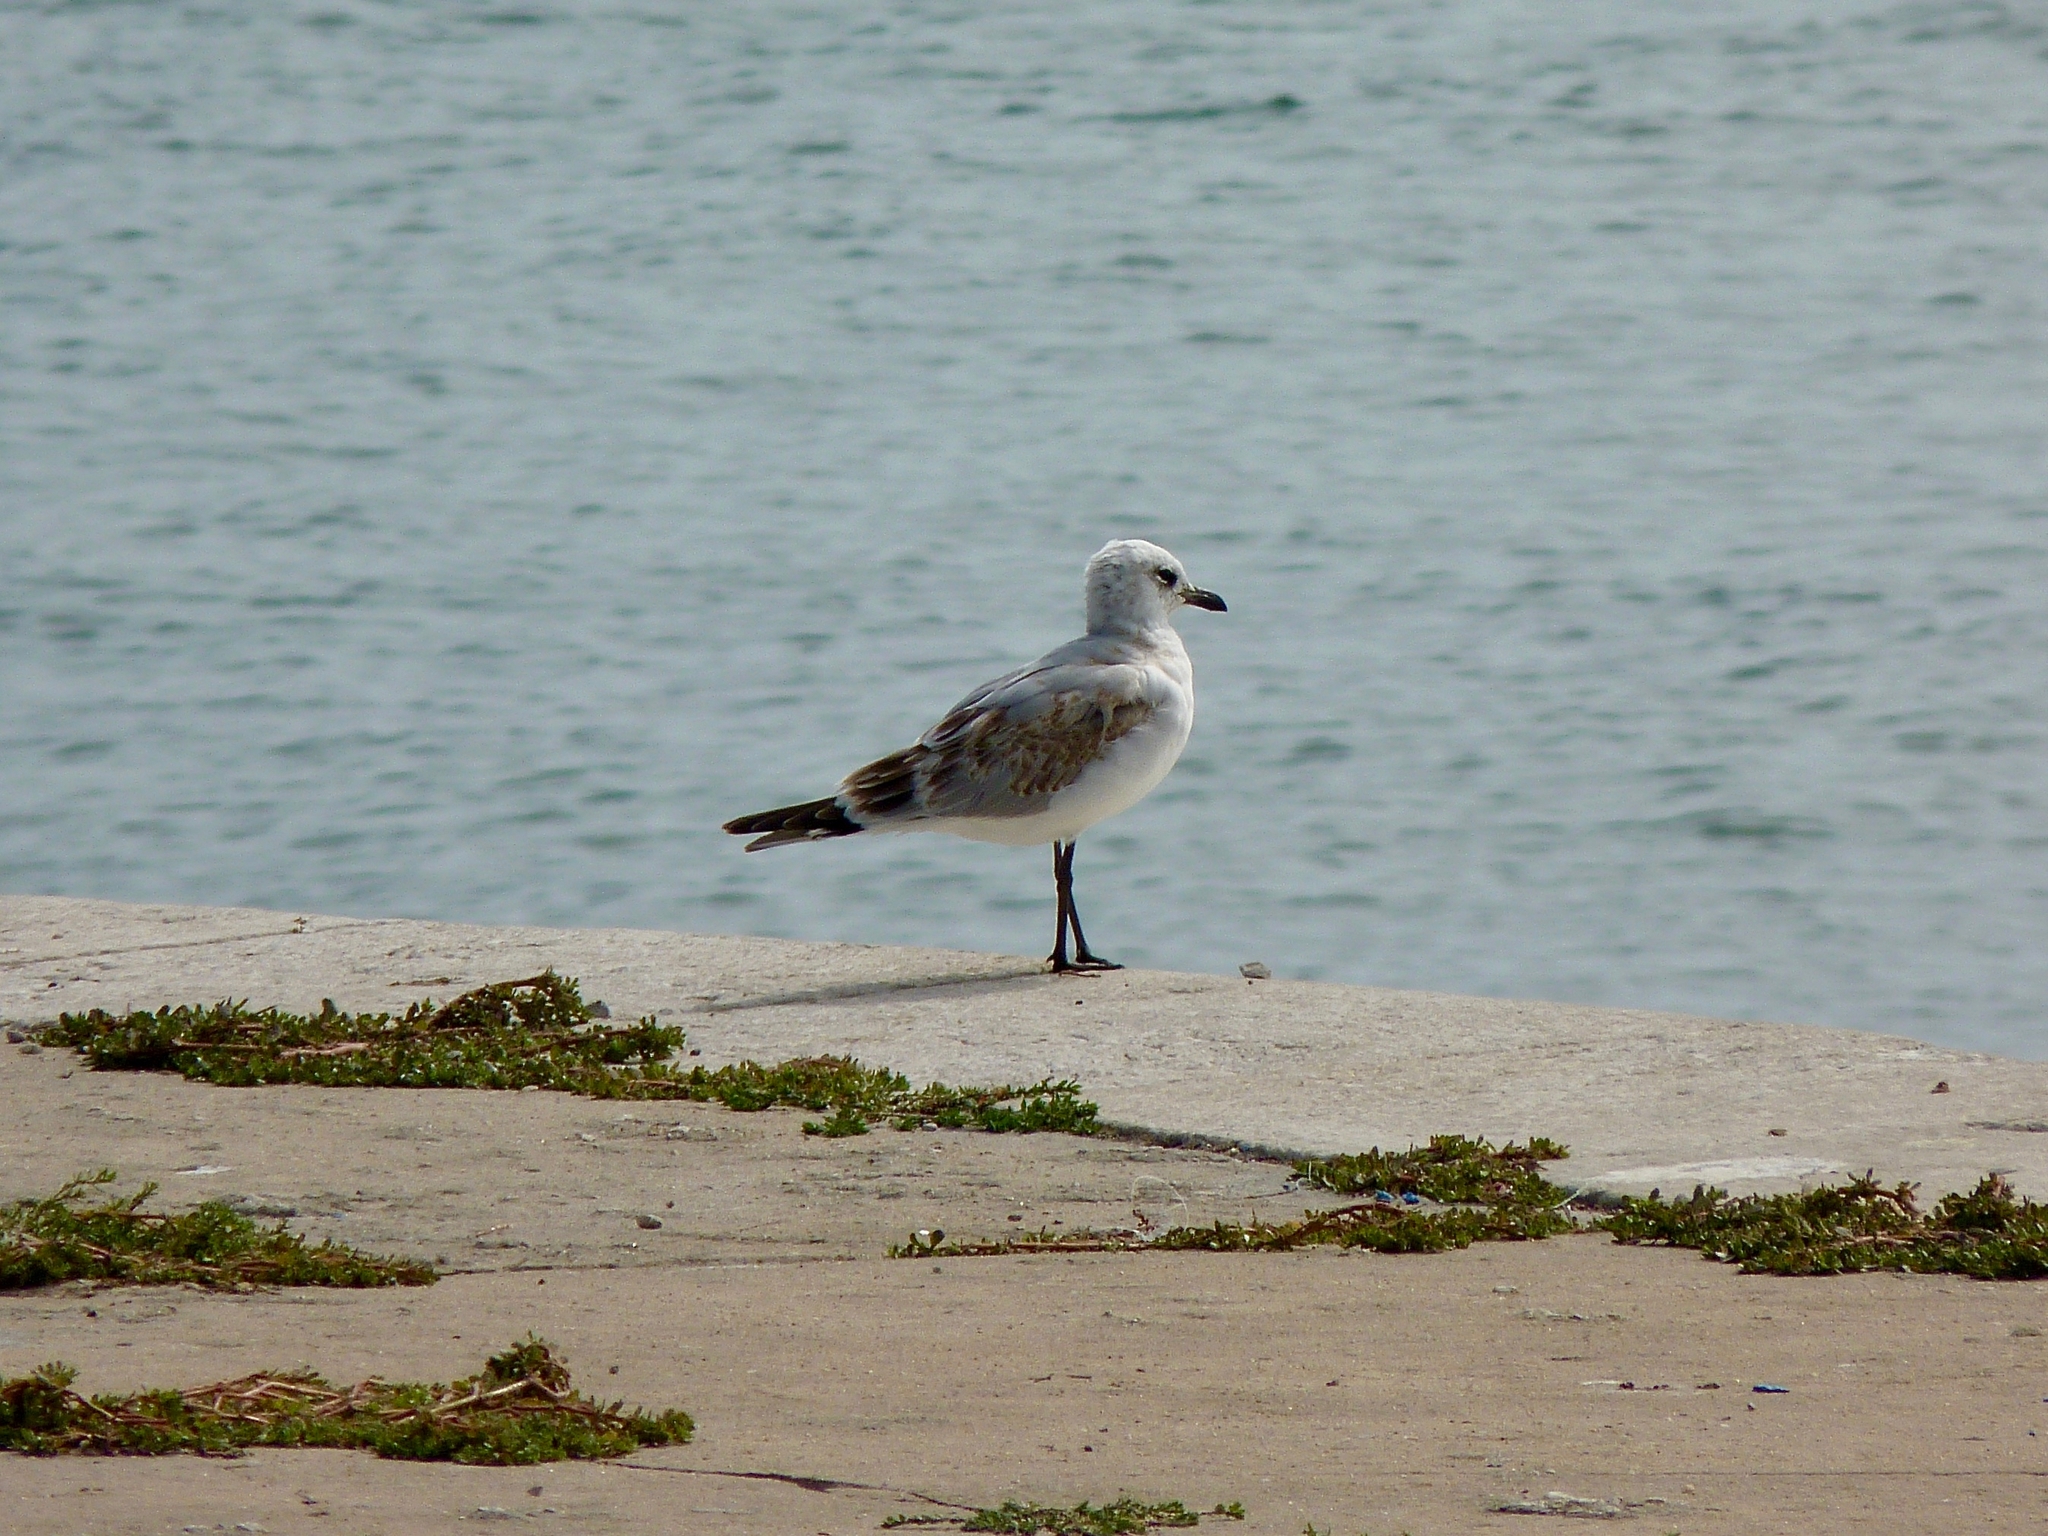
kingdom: Animalia
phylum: Chordata
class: Aves
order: Charadriiformes
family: Laridae
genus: Ichthyaetus
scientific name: Ichthyaetus audouinii
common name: Audouin's gull
